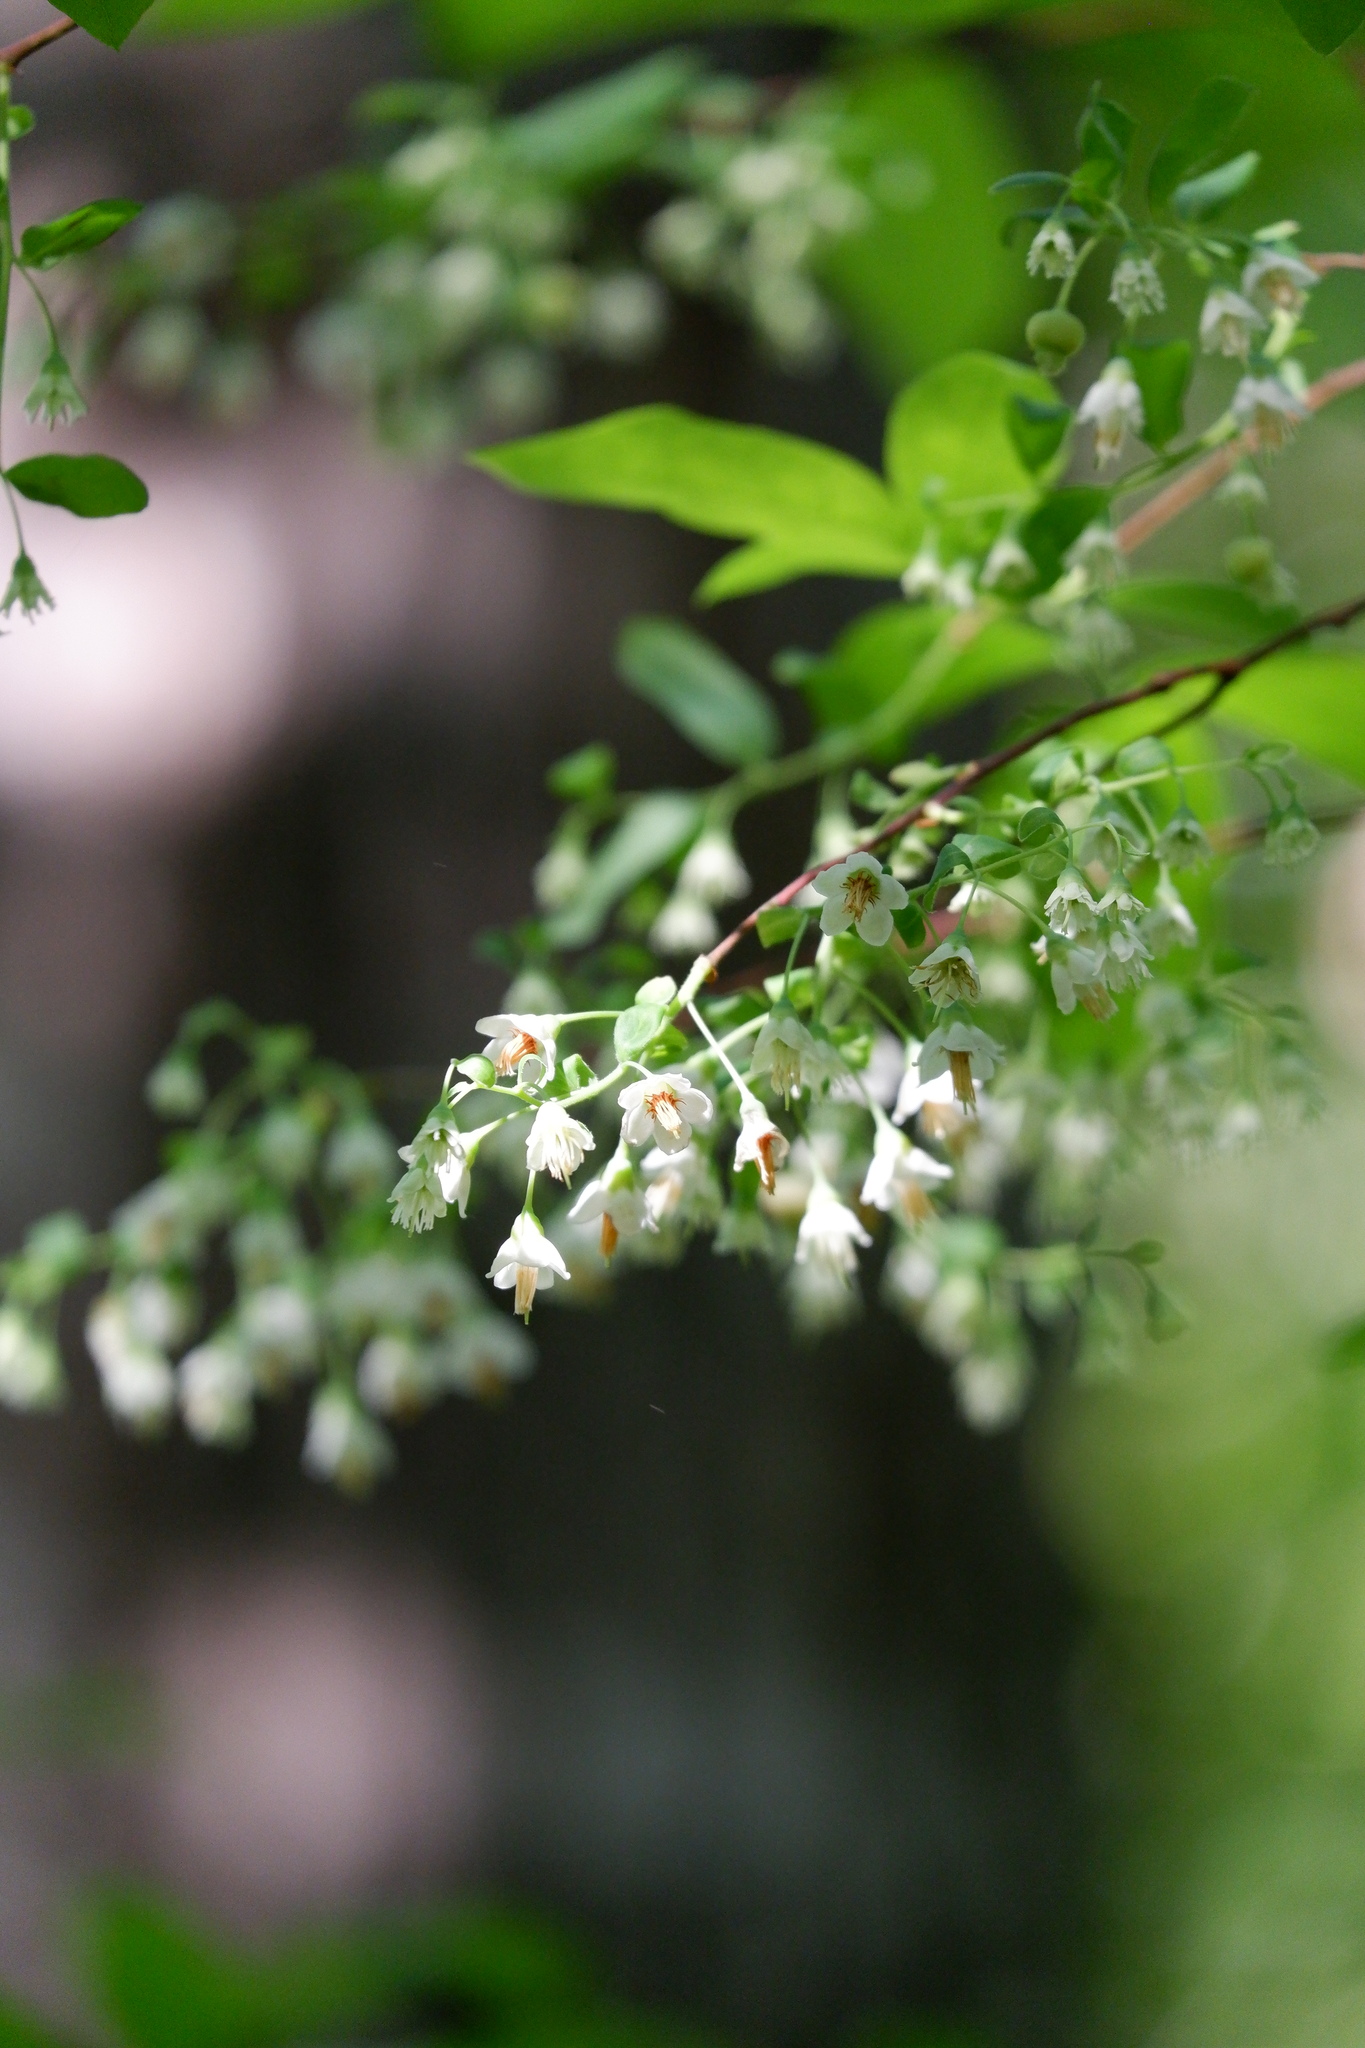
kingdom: Plantae
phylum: Tracheophyta
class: Magnoliopsida
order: Ericales
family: Ericaceae
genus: Vaccinium
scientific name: Vaccinium stamineum
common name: Deerberry
